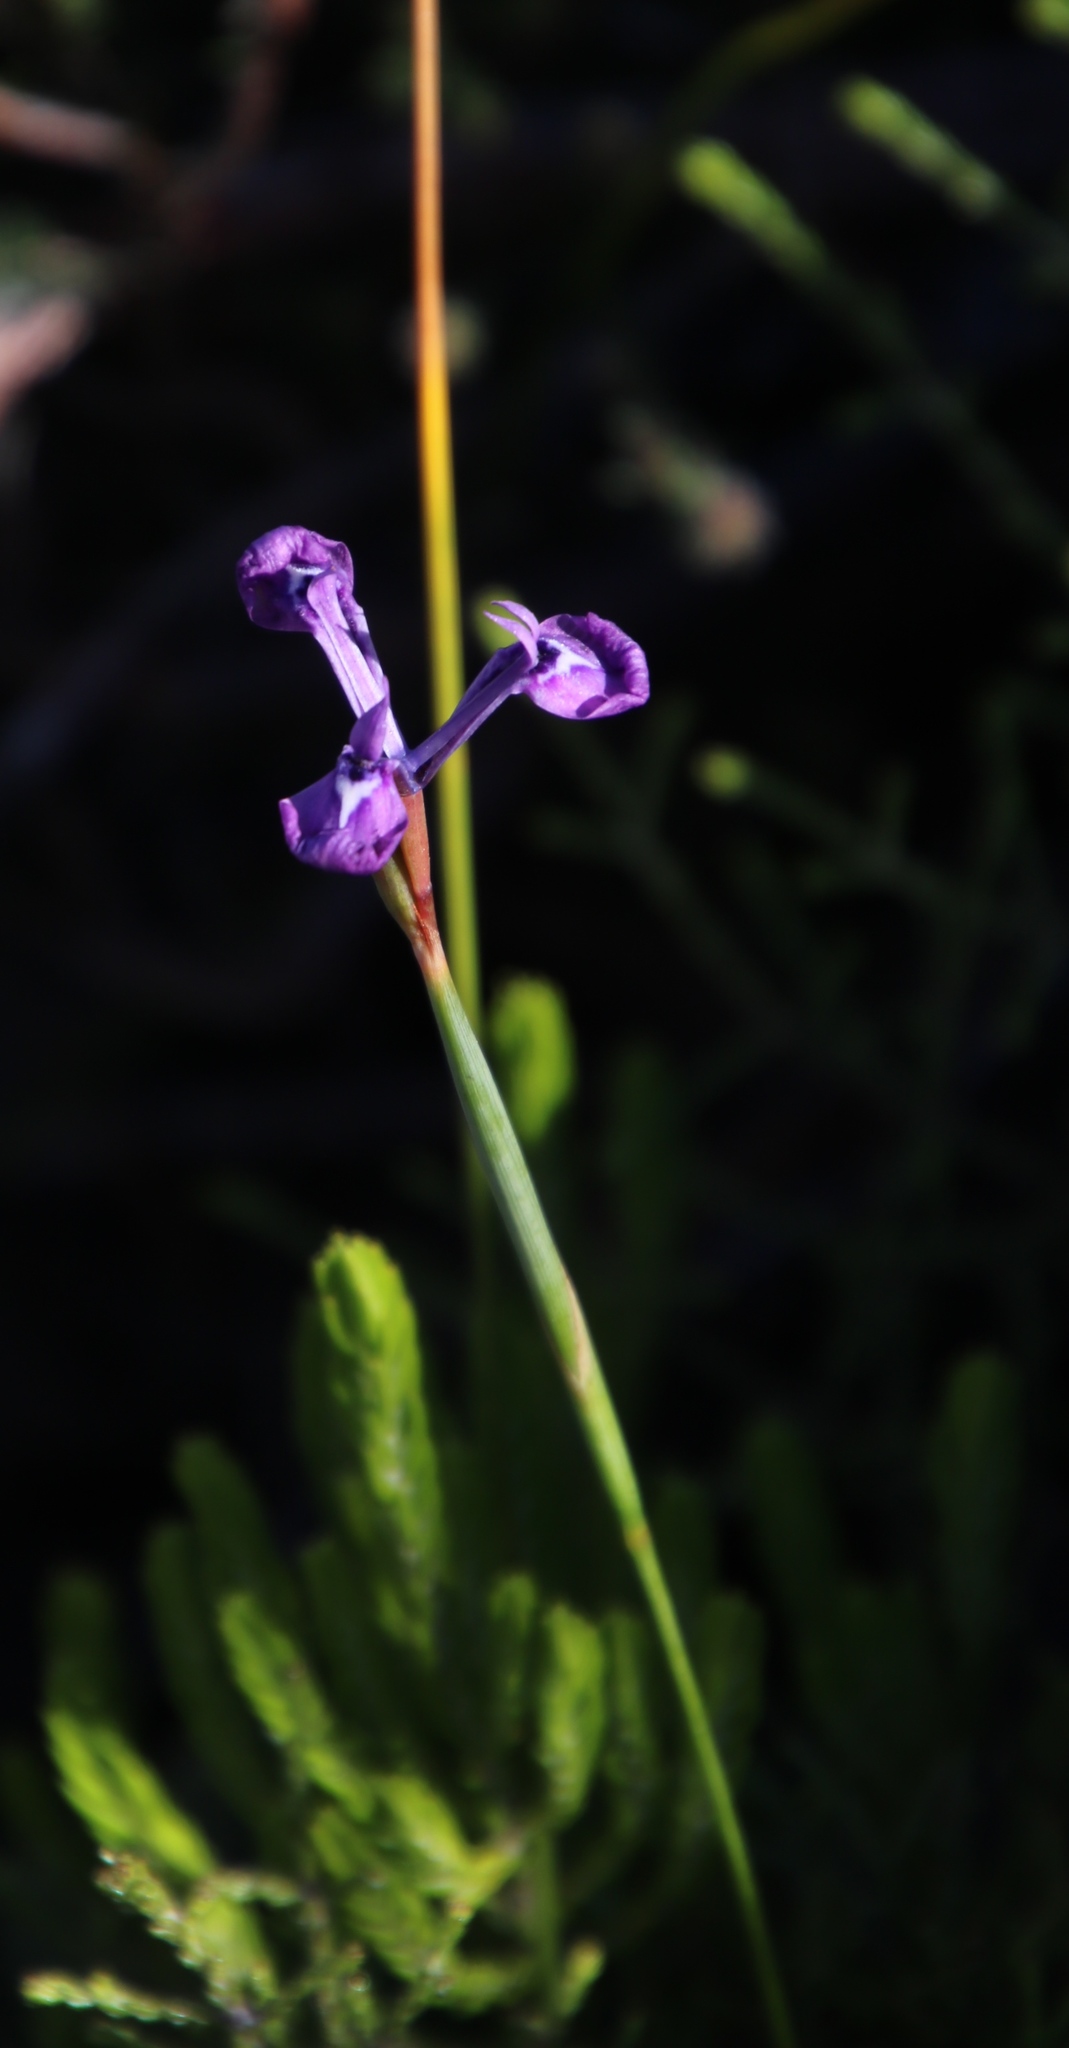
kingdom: Plantae
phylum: Tracheophyta
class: Liliopsida
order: Asparagales
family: Iridaceae
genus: Moraea
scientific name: Moraea tripetala
